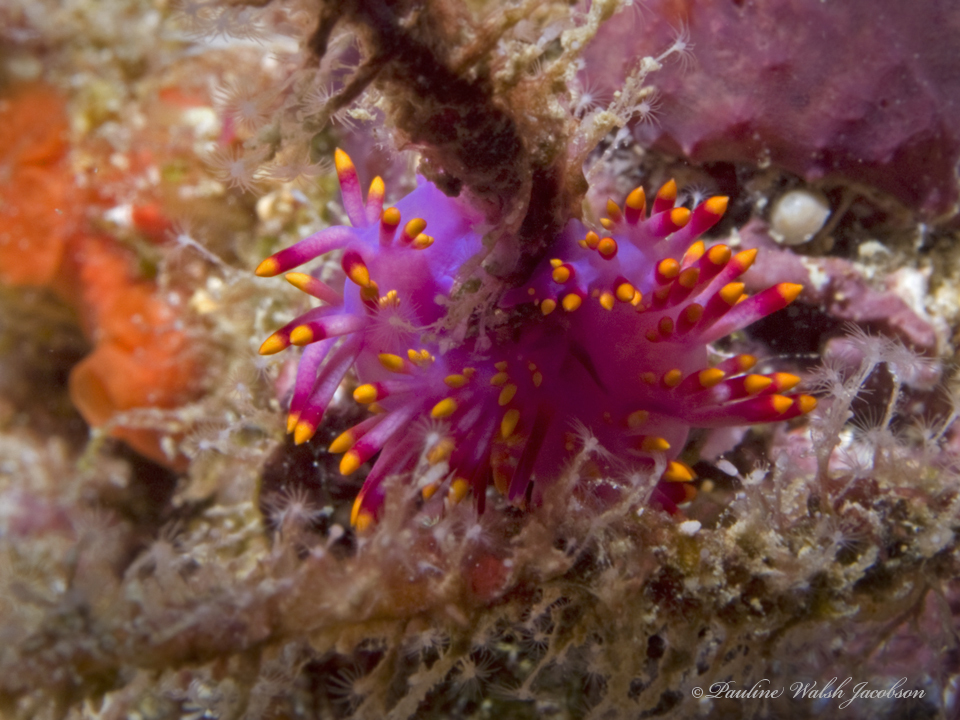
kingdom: Animalia
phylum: Mollusca
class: Gastropoda
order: Nudibranchia
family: Trinchesiidae
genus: Trinchesia
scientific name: Trinchesia sibogae
